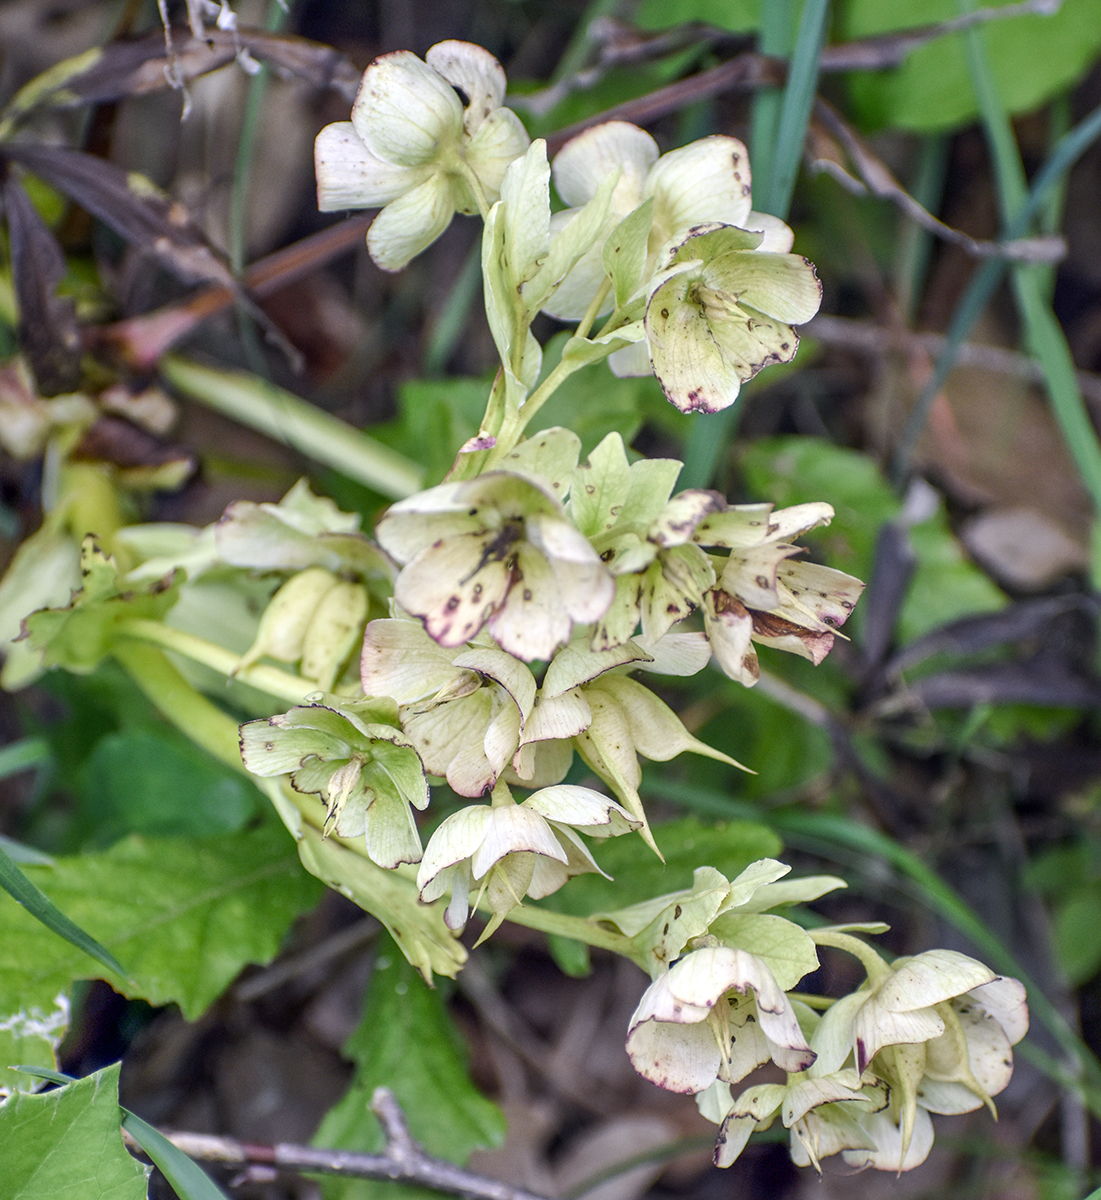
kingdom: Plantae
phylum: Tracheophyta
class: Magnoliopsida
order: Ranunculales
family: Ranunculaceae
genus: Helleborus
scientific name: Helleborus foetidus
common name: Stinking hellebore
